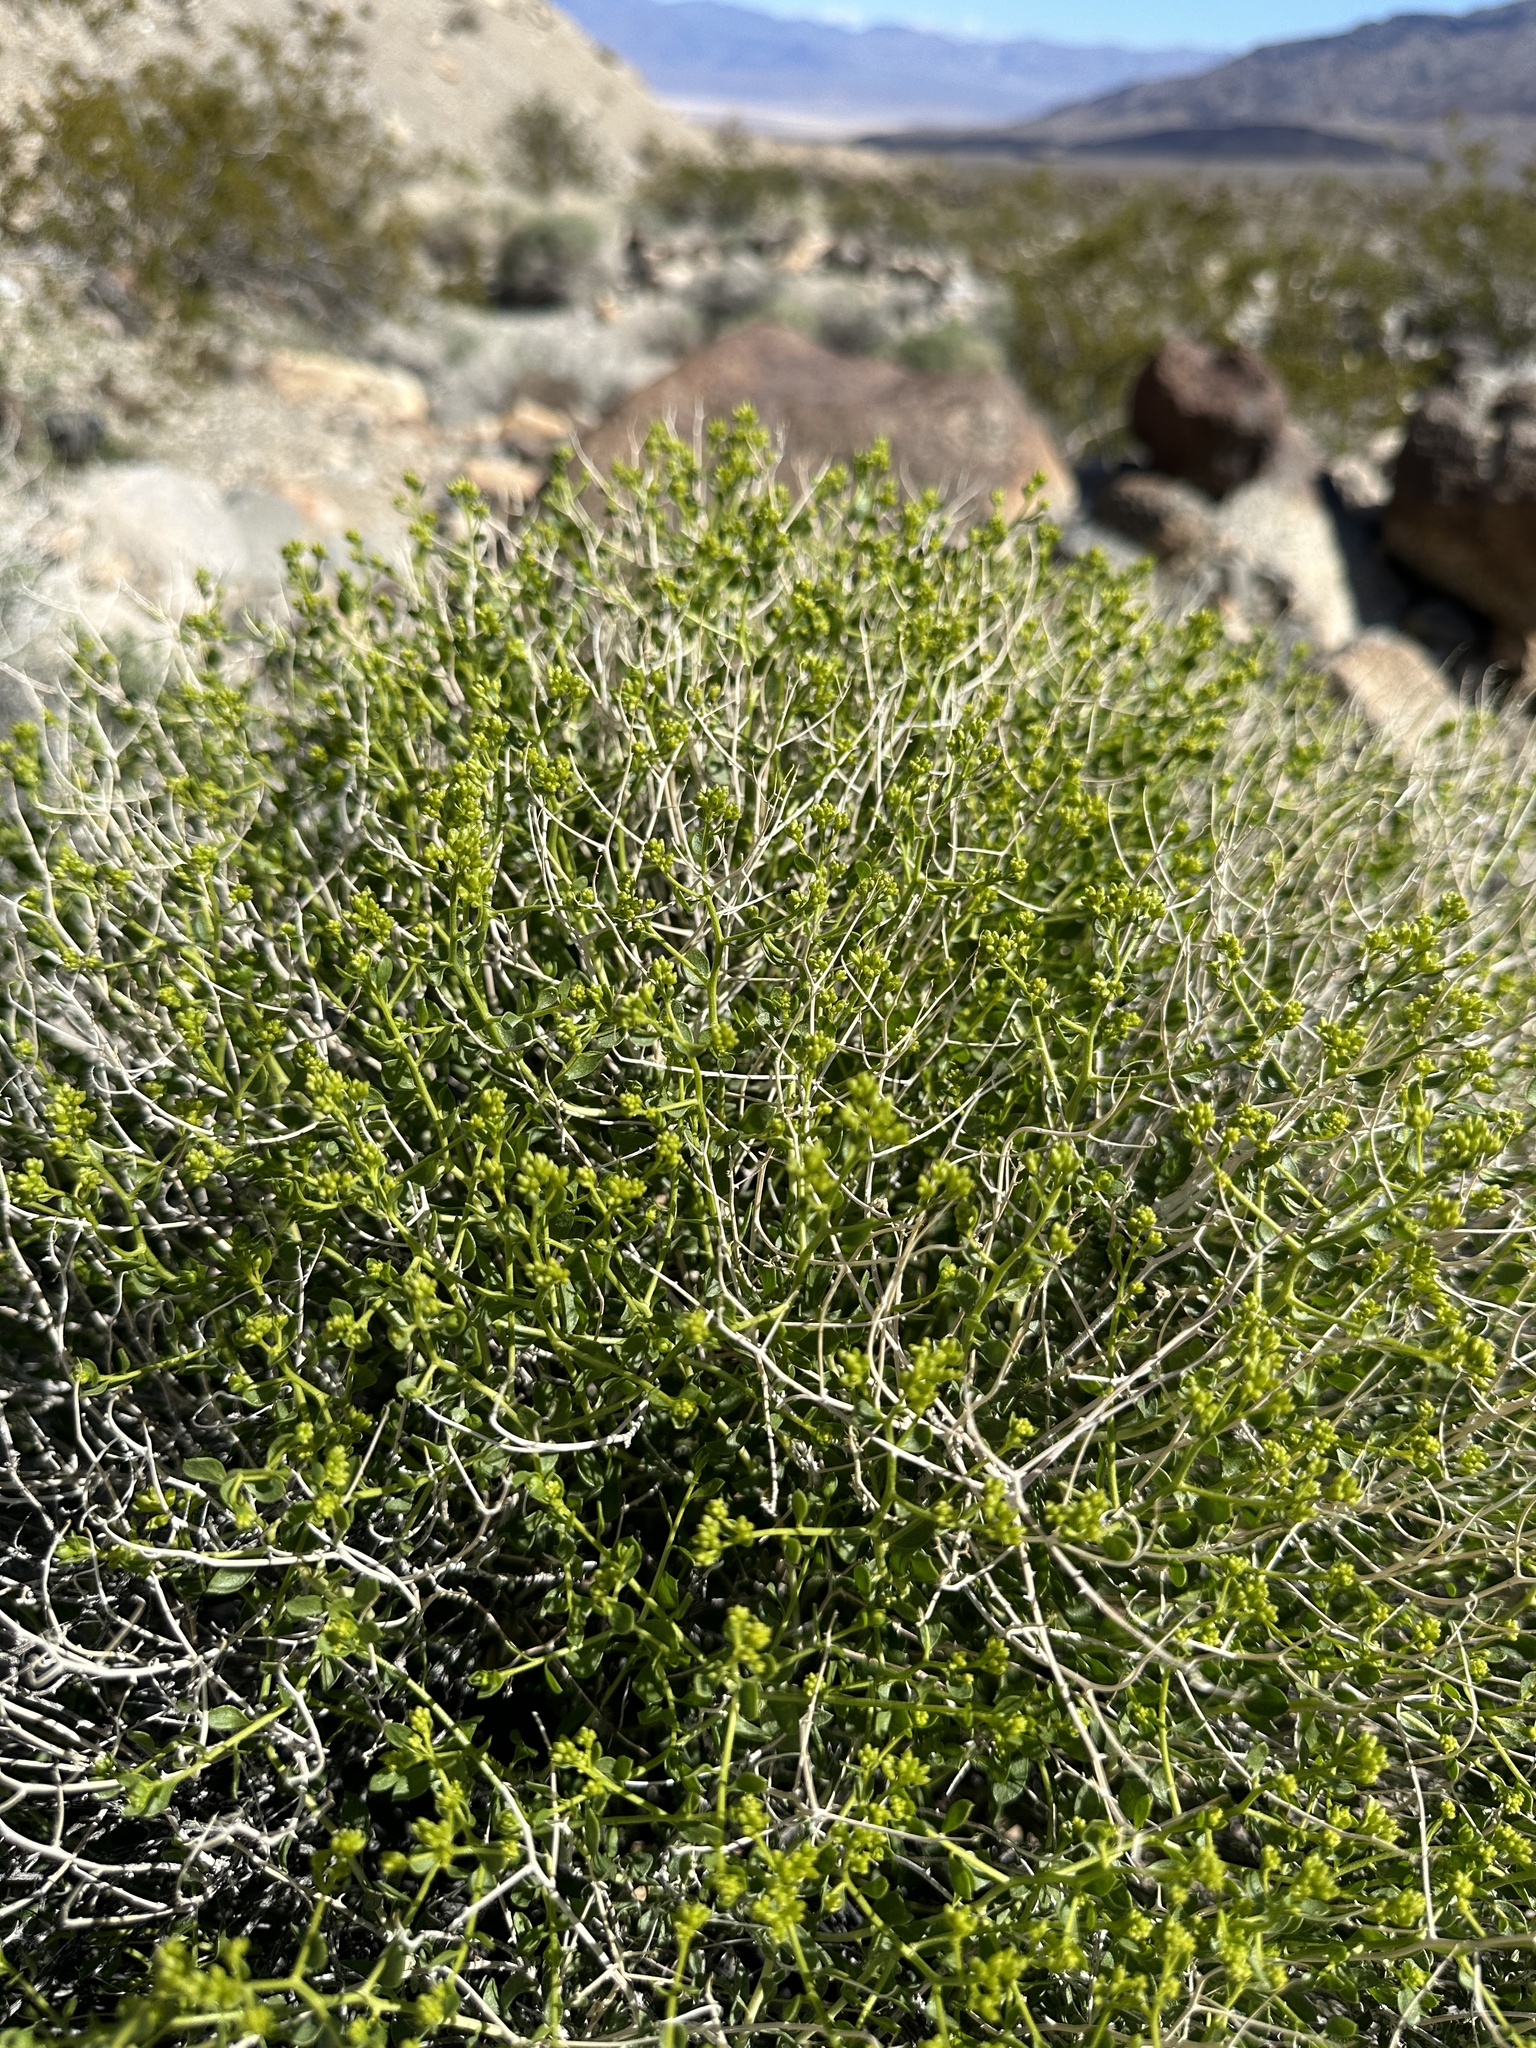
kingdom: Plantae
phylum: Tracheophyta
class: Magnoliopsida
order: Asterales
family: Asteraceae
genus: Amphipappus
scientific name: Amphipappus fremontii
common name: Fremont's chaffbush
